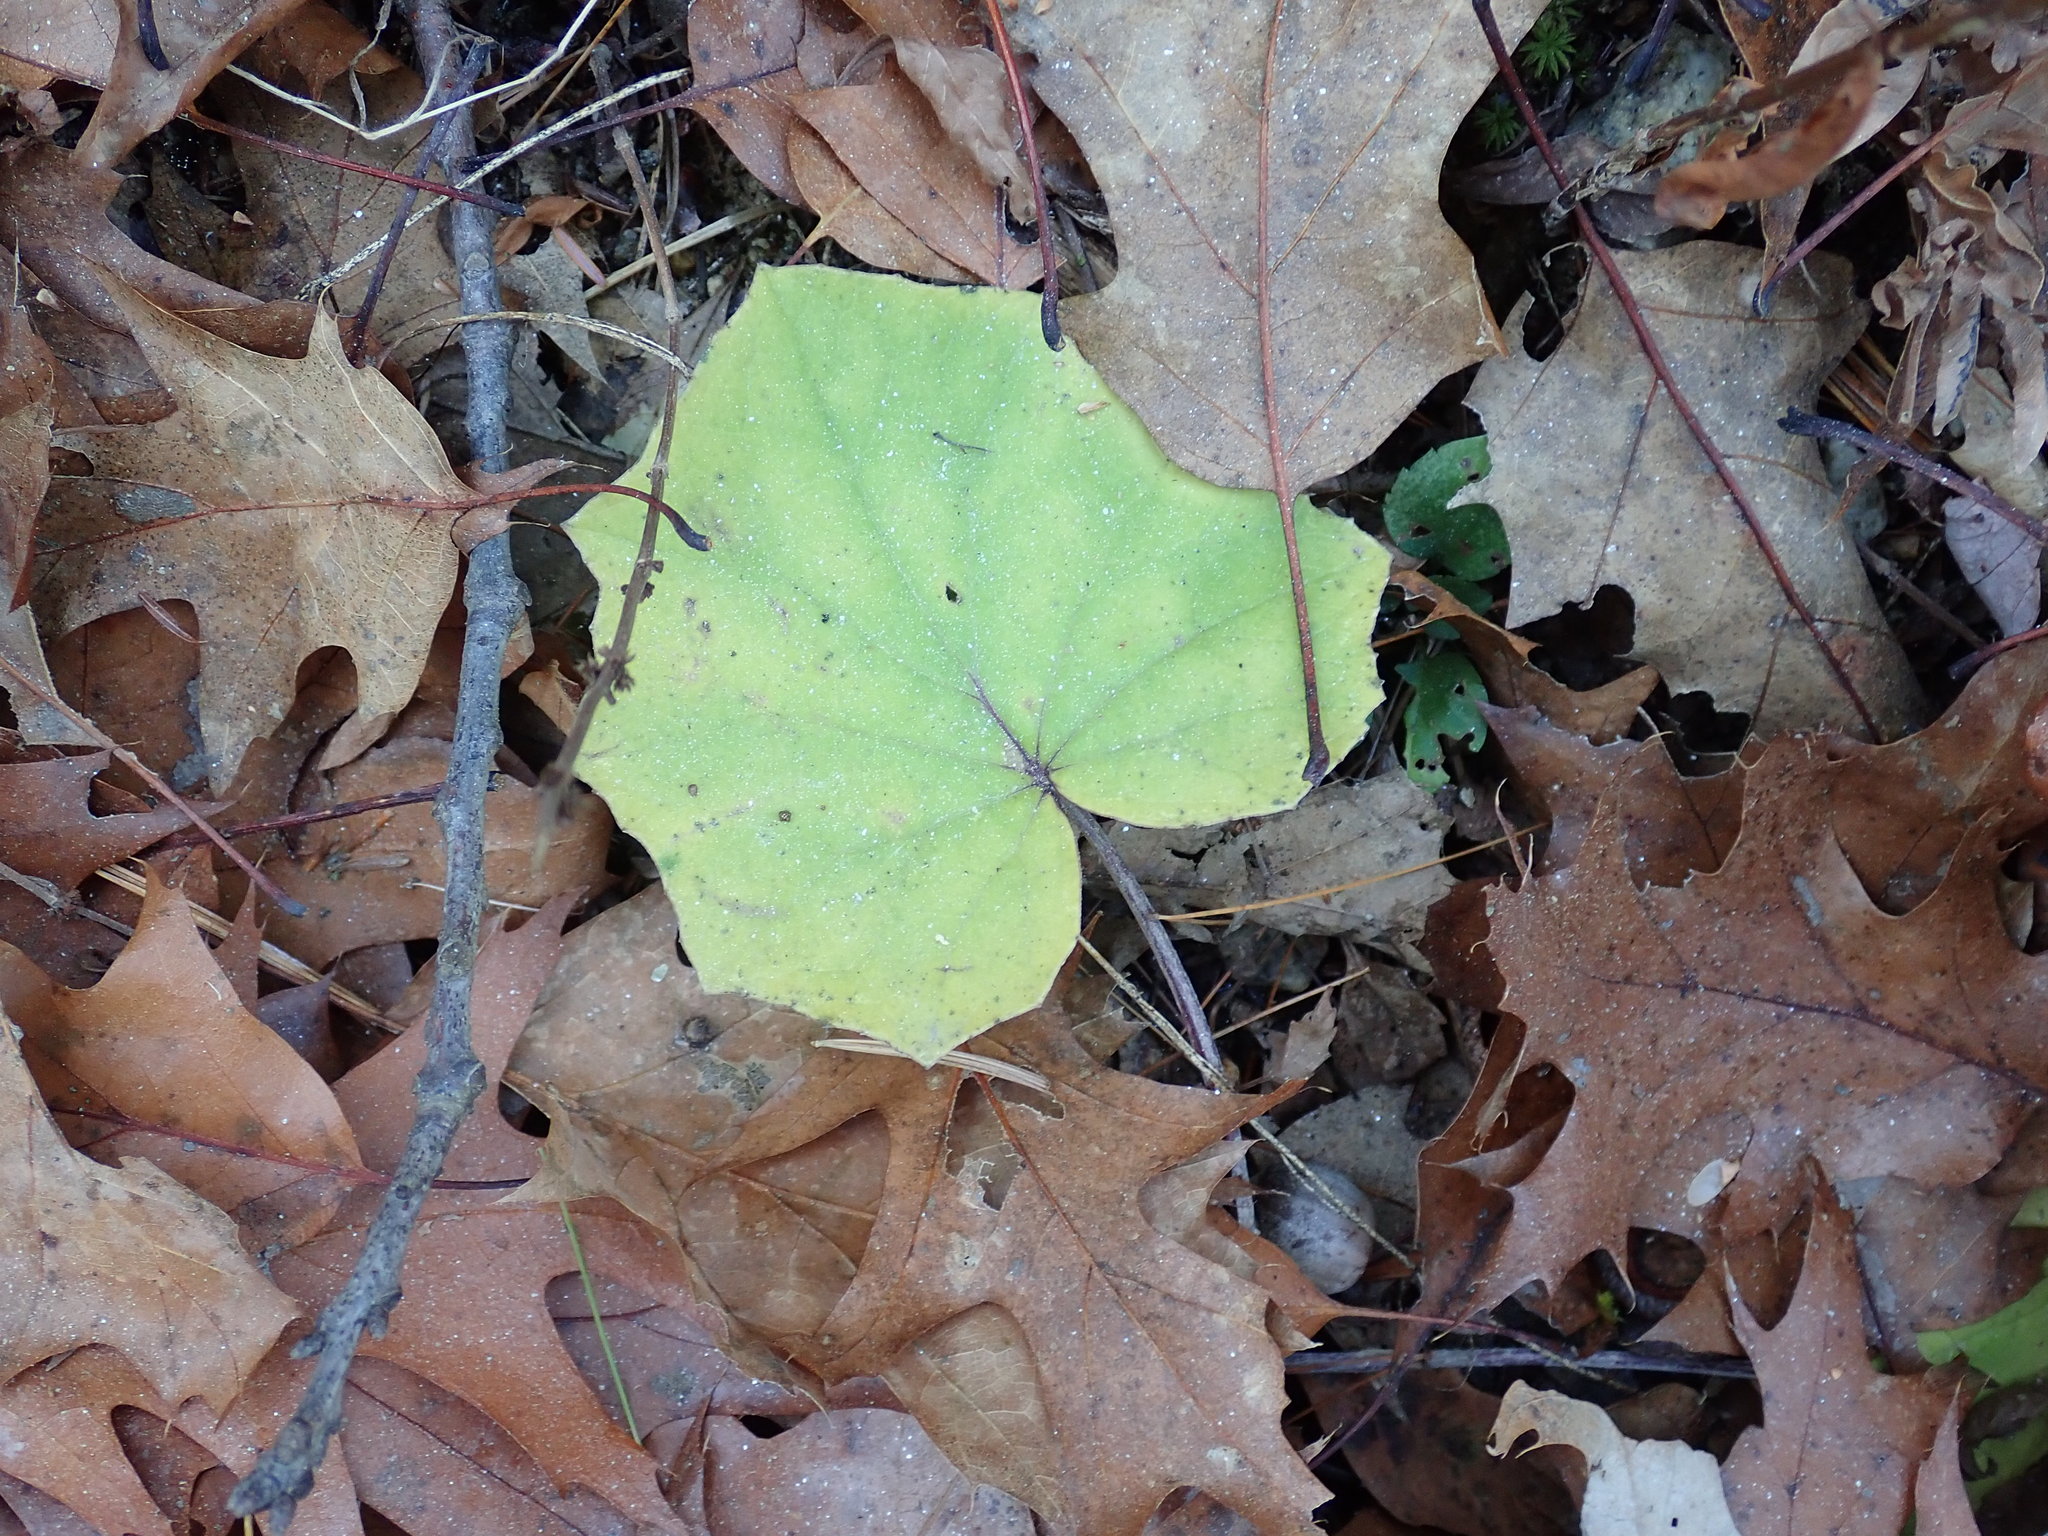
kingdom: Plantae
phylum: Tracheophyta
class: Magnoliopsida
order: Asterales
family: Asteraceae
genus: Tussilago
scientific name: Tussilago farfara
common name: Coltsfoot
